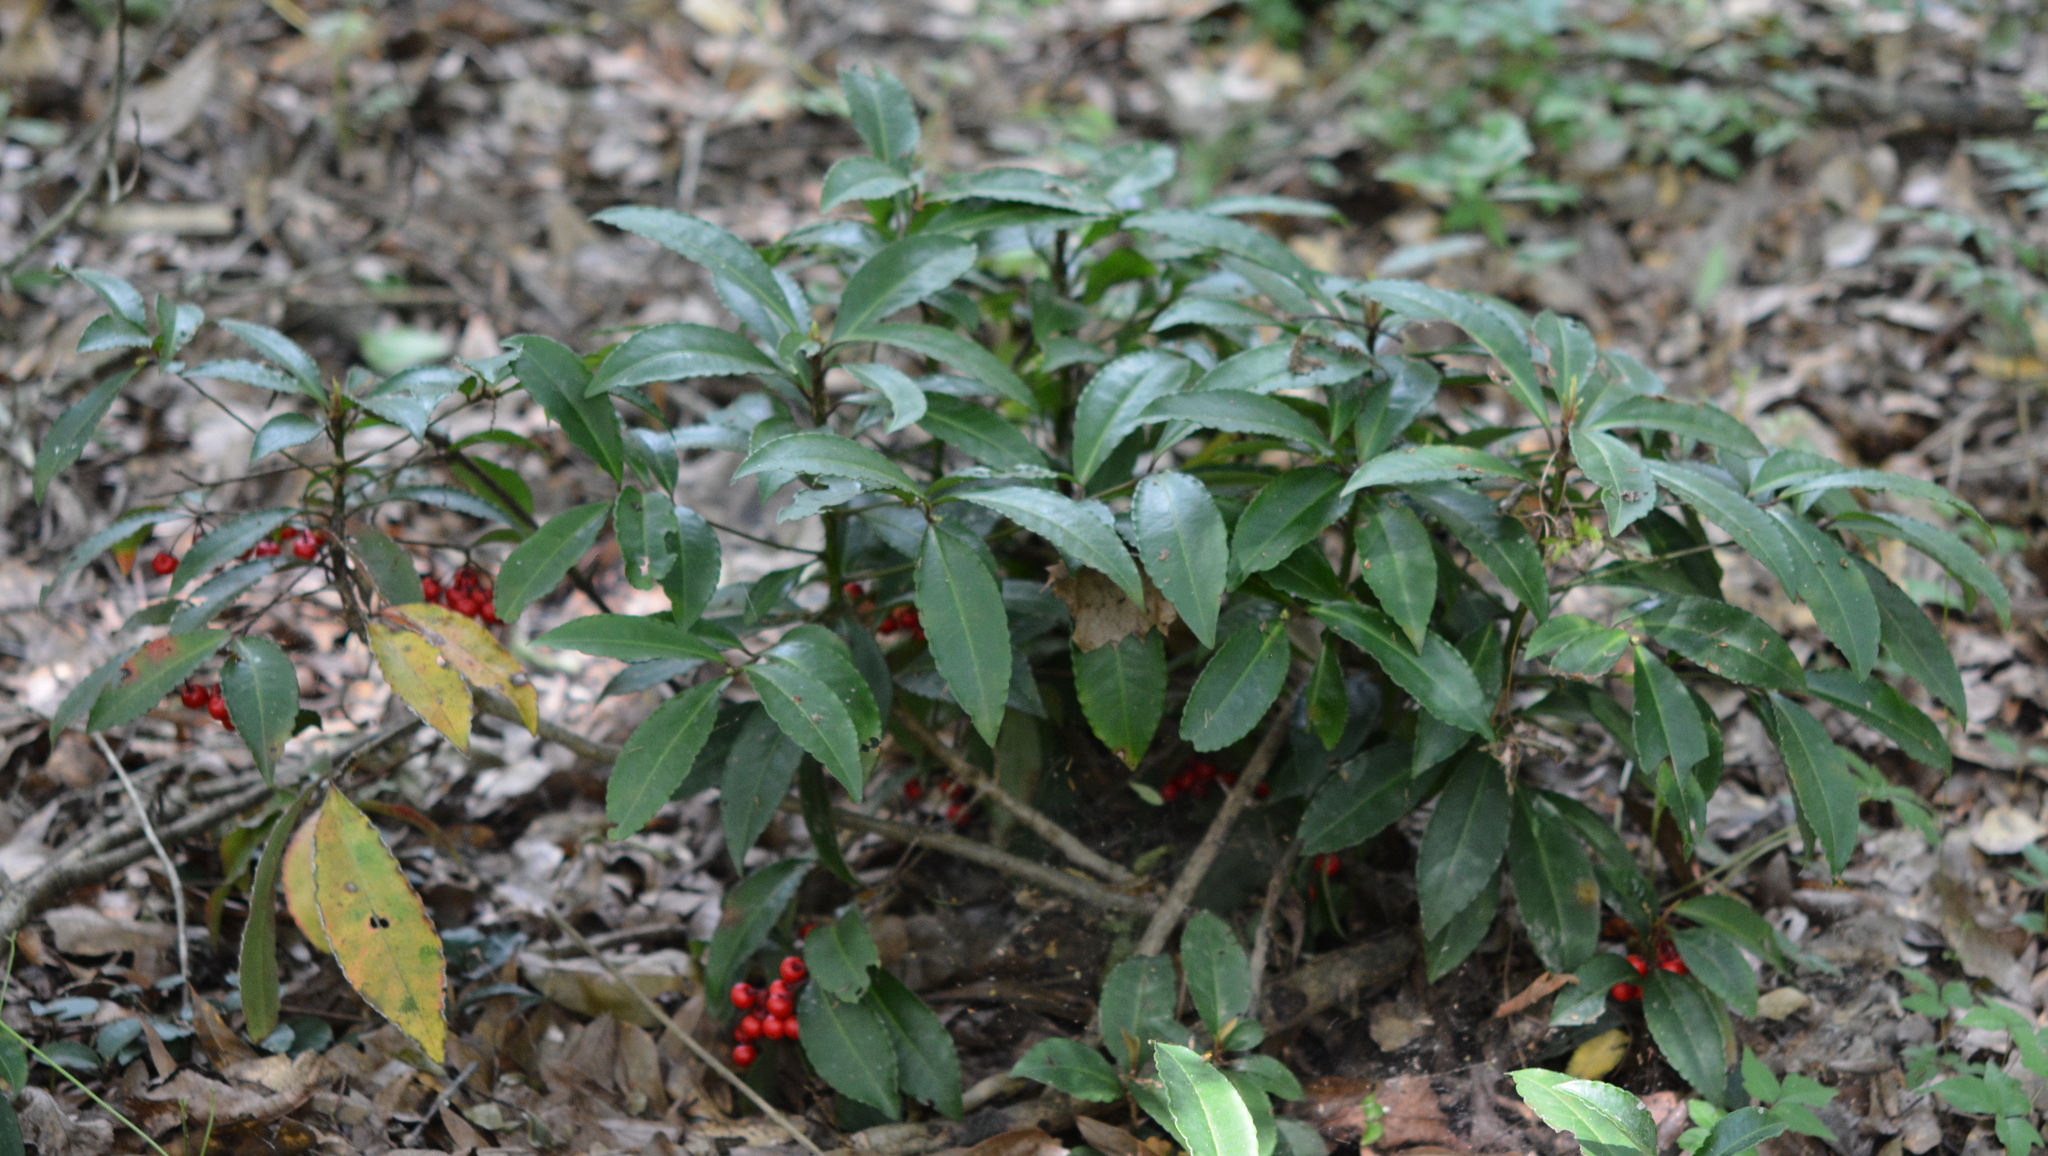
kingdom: Plantae
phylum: Tracheophyta
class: Magnoliopsida
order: Ericales
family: Primulaceae
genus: Ardisia
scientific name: Ardisia crenata
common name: Hen's eyes
